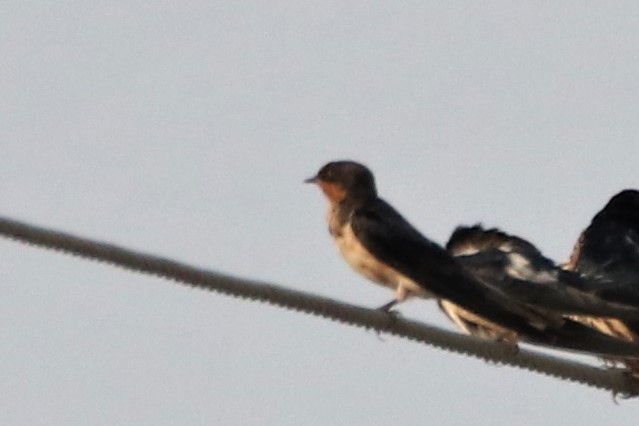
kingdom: Animalia
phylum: Chordata
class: Aves
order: Passeriformes
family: Hirundinidae
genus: Hirundo
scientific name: Hirundo rustica
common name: Barn swallow
